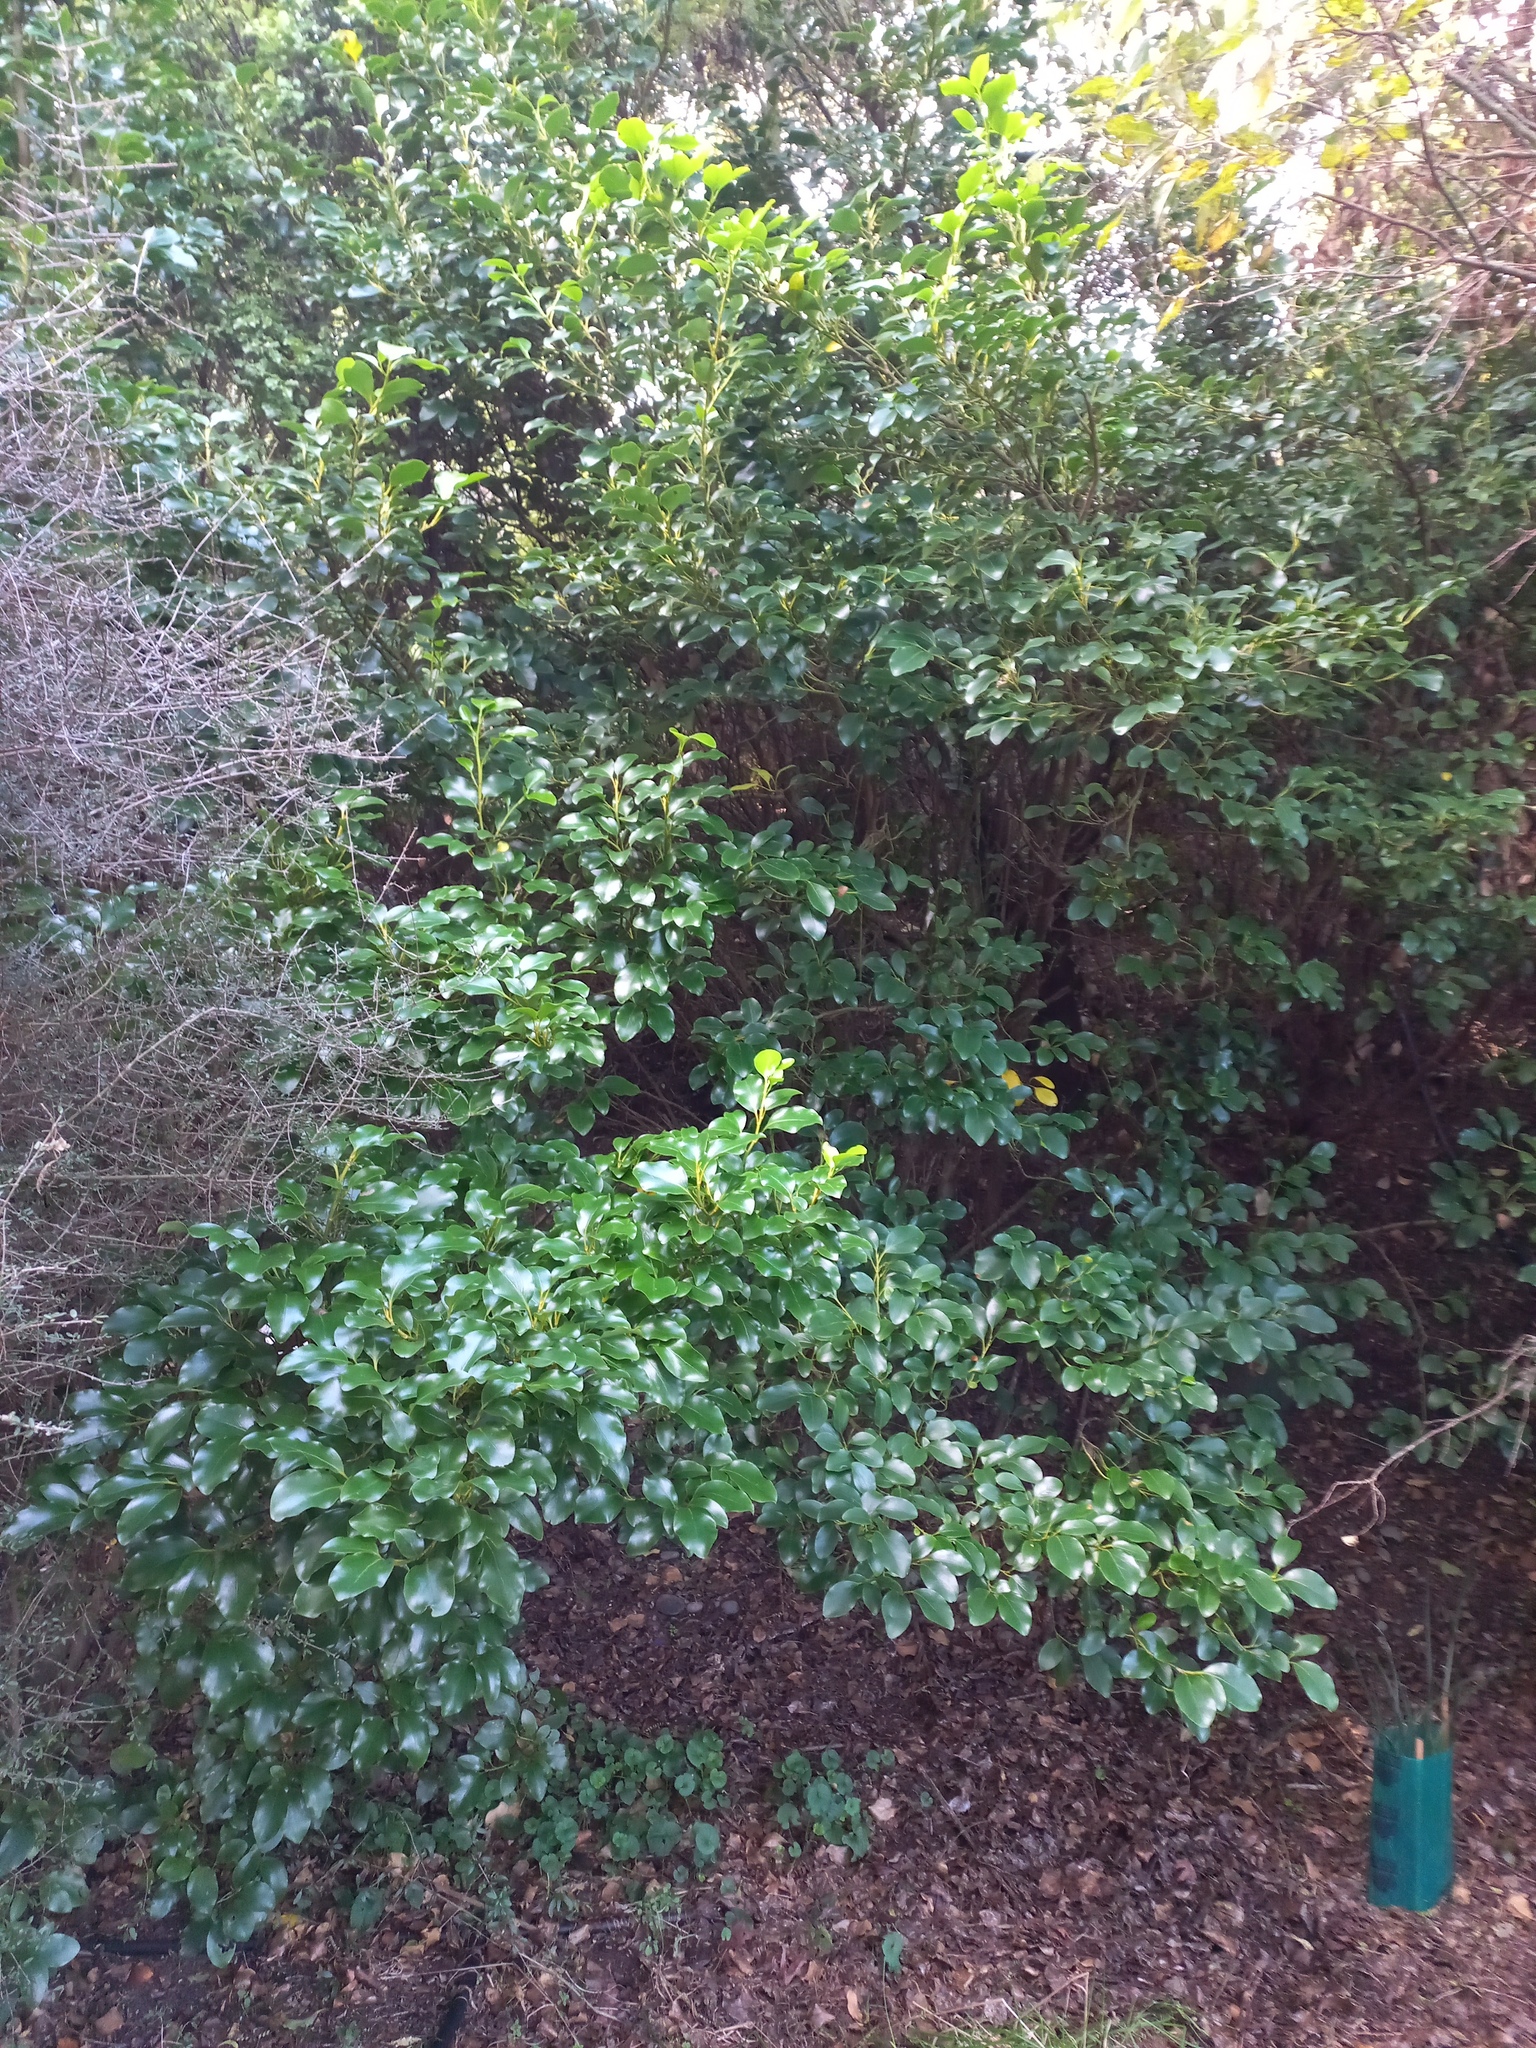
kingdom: Plantae
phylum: Tracheophyta
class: Magnoliopsida
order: Apiales
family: Griseliniaceae
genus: Griselinia
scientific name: Griselinia littoralis
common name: New zealand broadleaf
